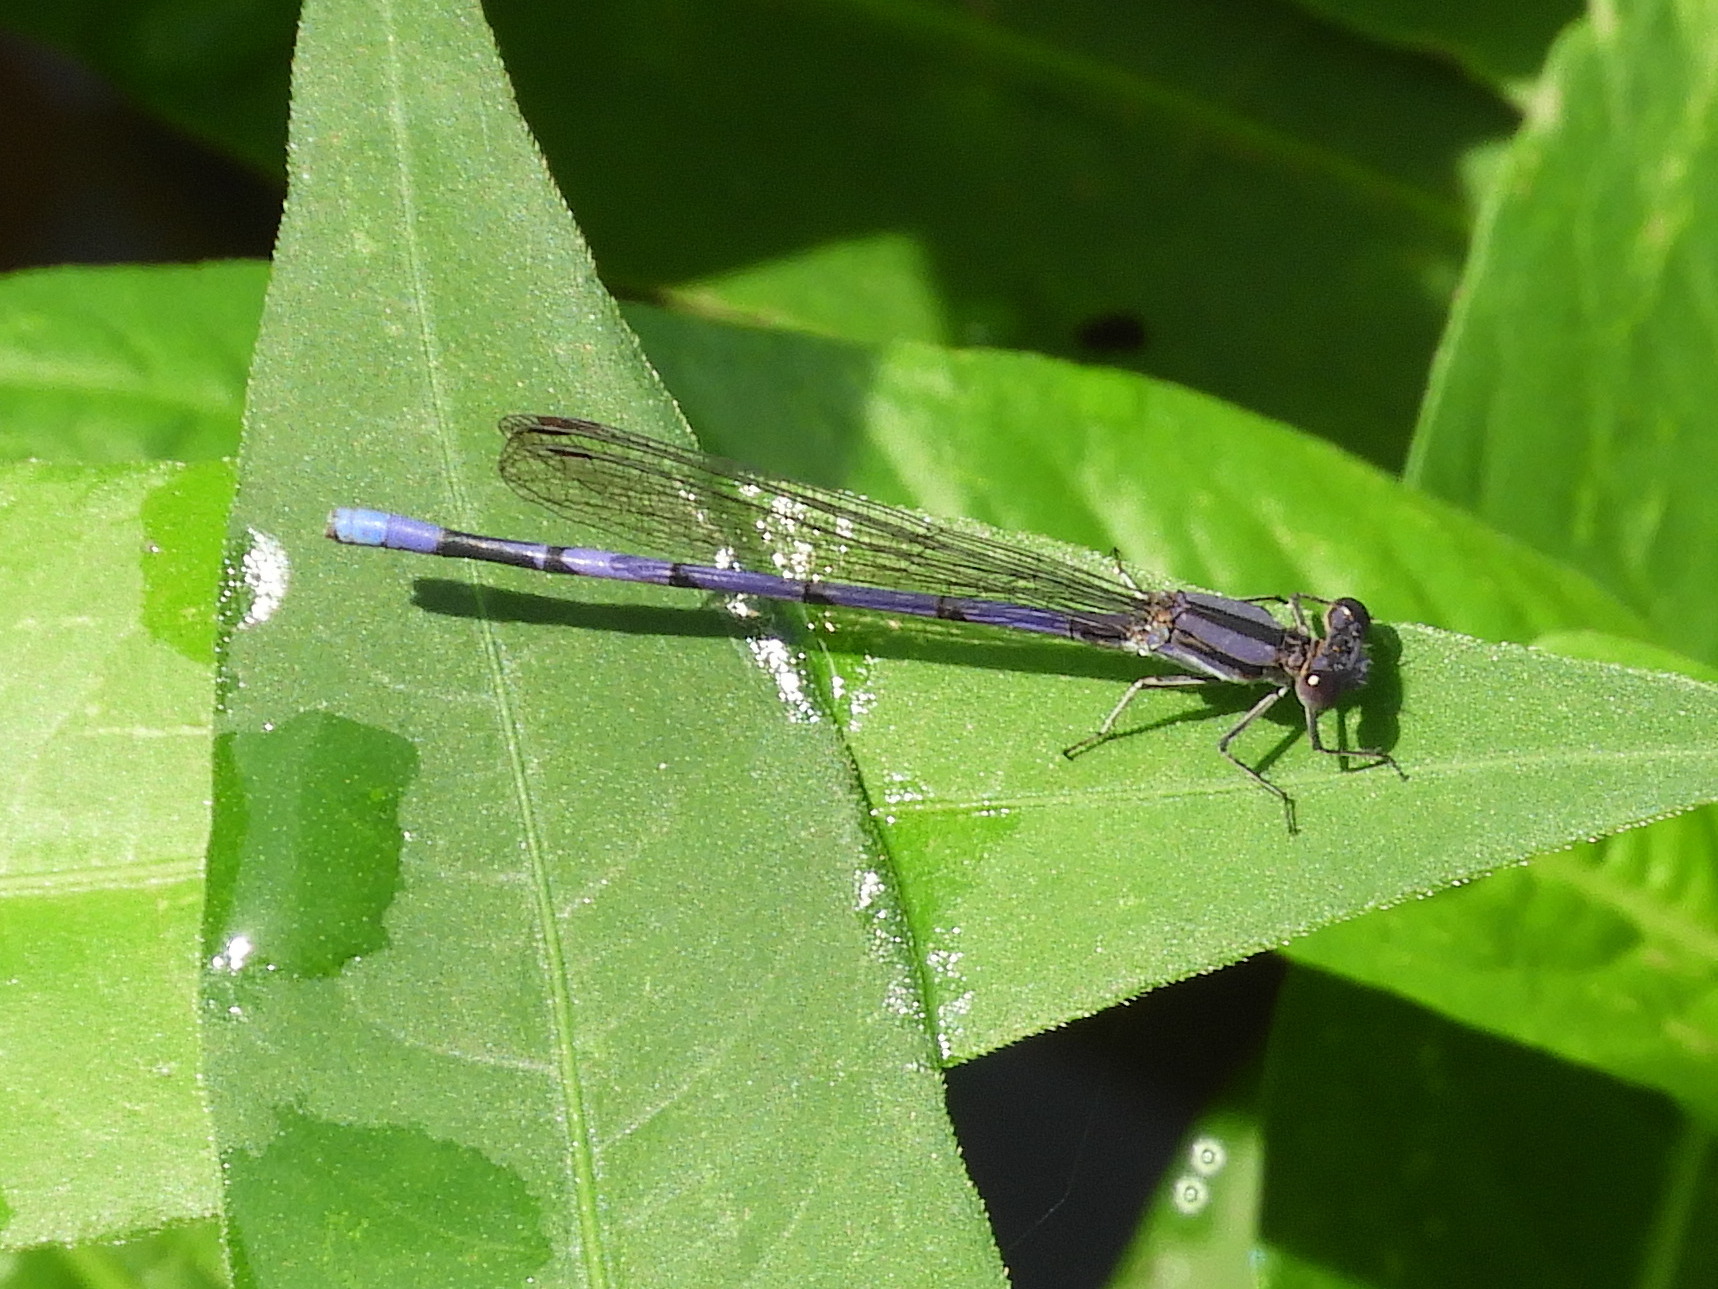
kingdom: Animalia
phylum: Arthropoda
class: Insecta
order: Odonata
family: Coenagrionidae
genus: Argia
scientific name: Argia fumipennis
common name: Variable dancer
